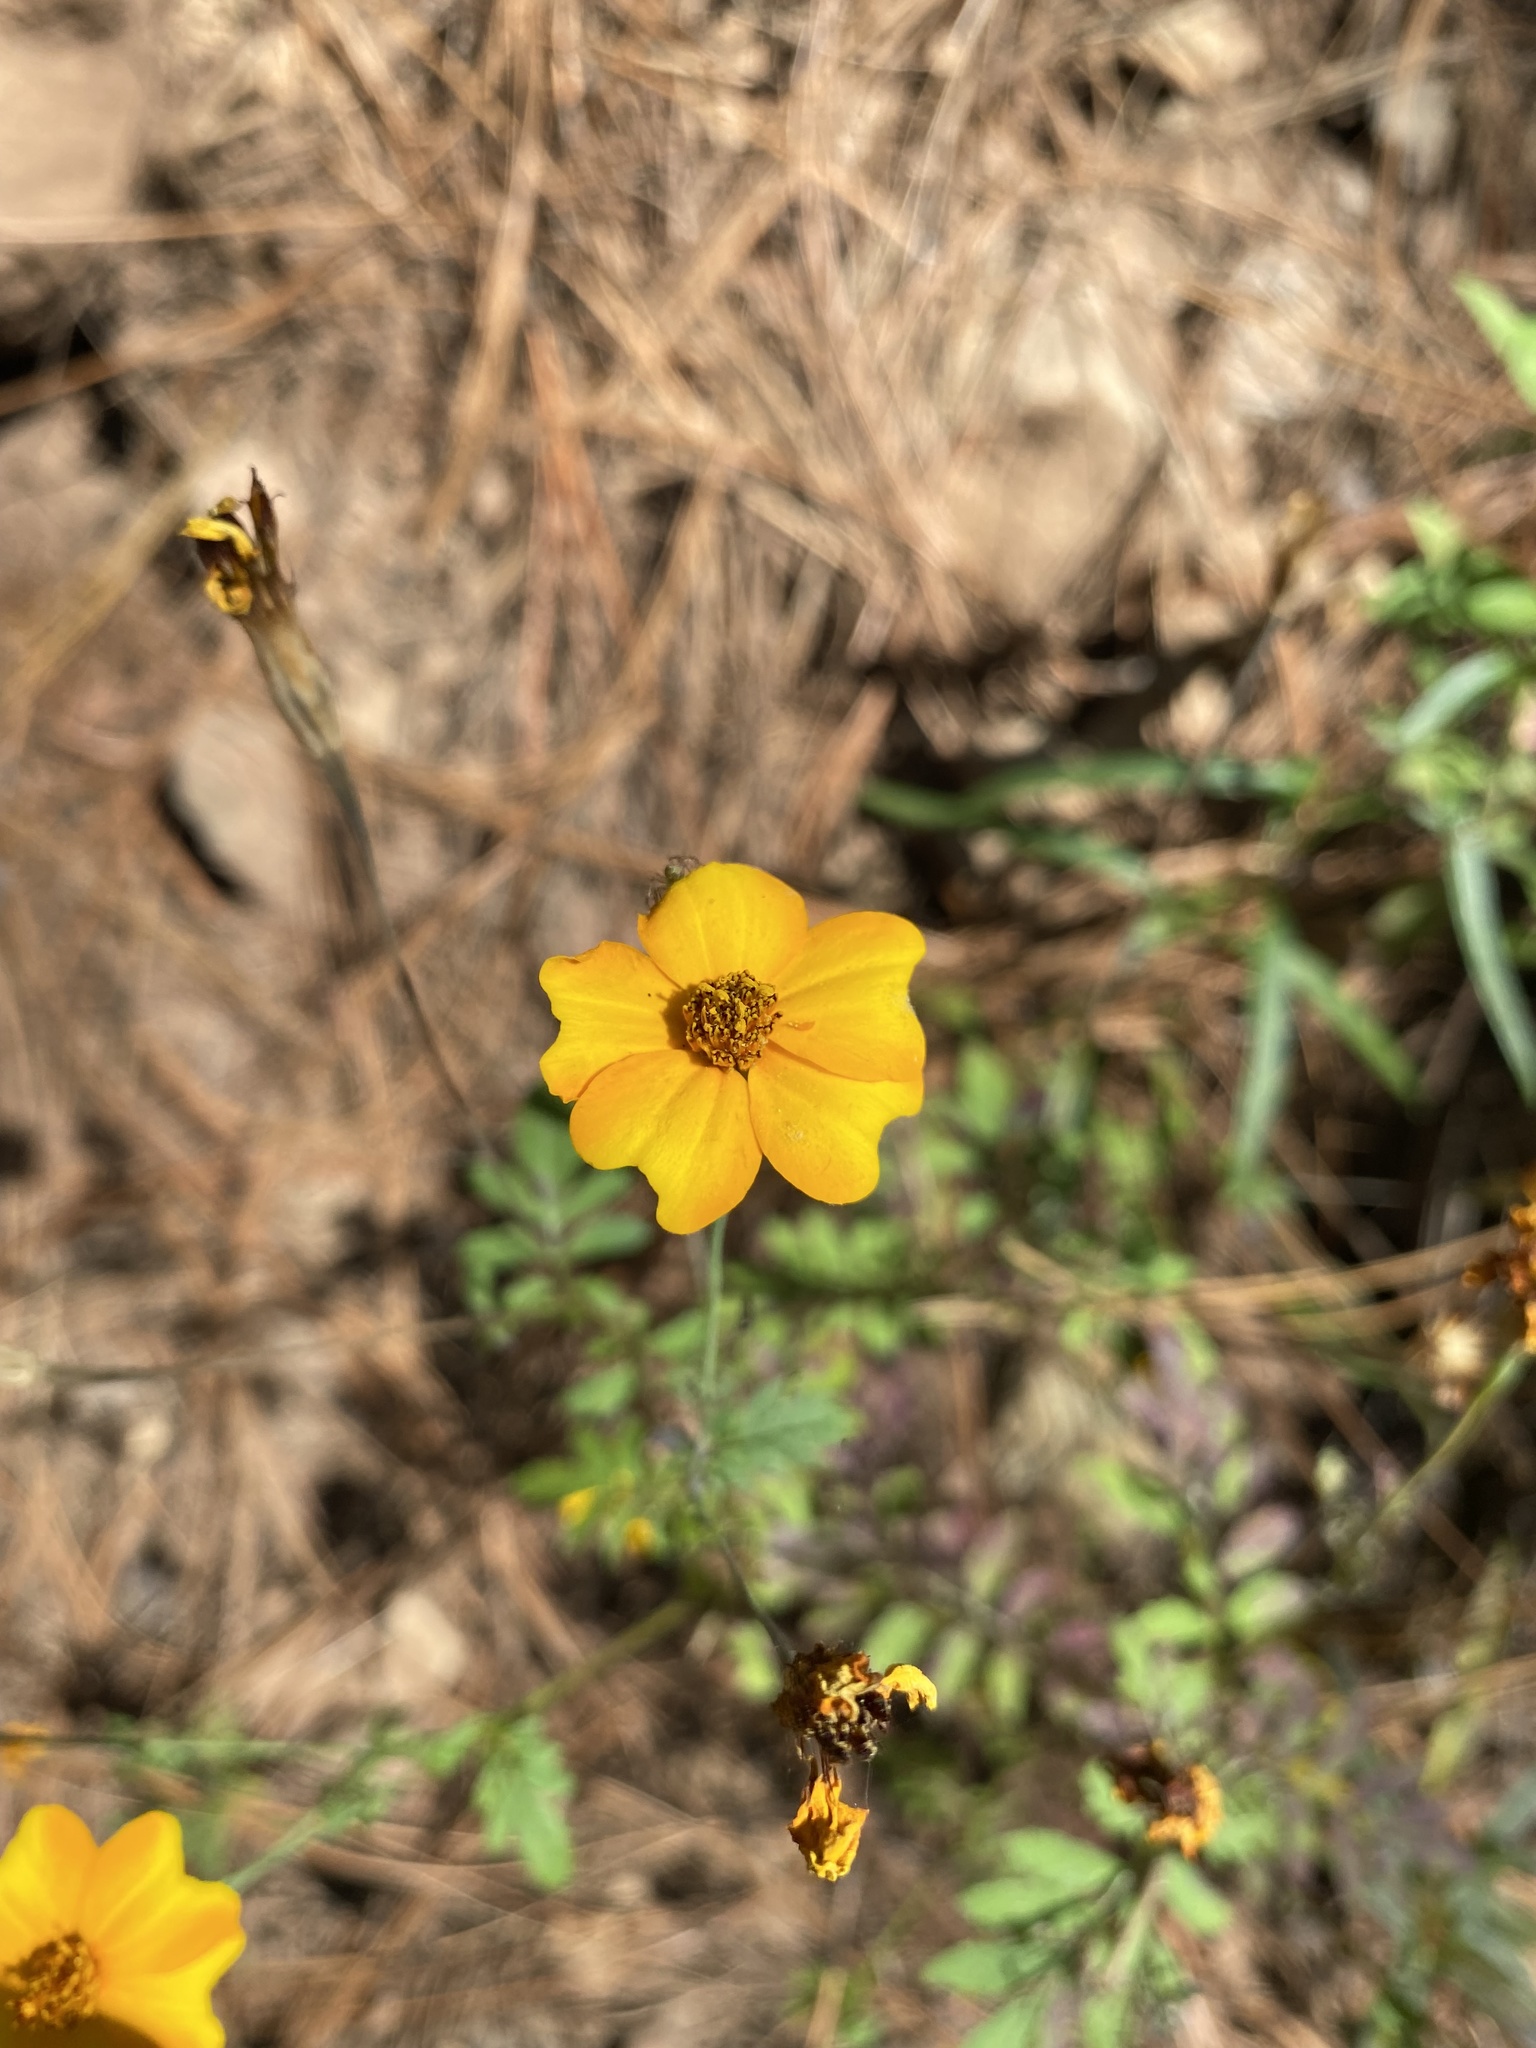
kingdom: Plantae
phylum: Tracheophyta
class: Magnoliopsida
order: Asterales
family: Asteraceae
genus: Tagetes
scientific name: Tagetes tenuifolia
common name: Signet marigold
